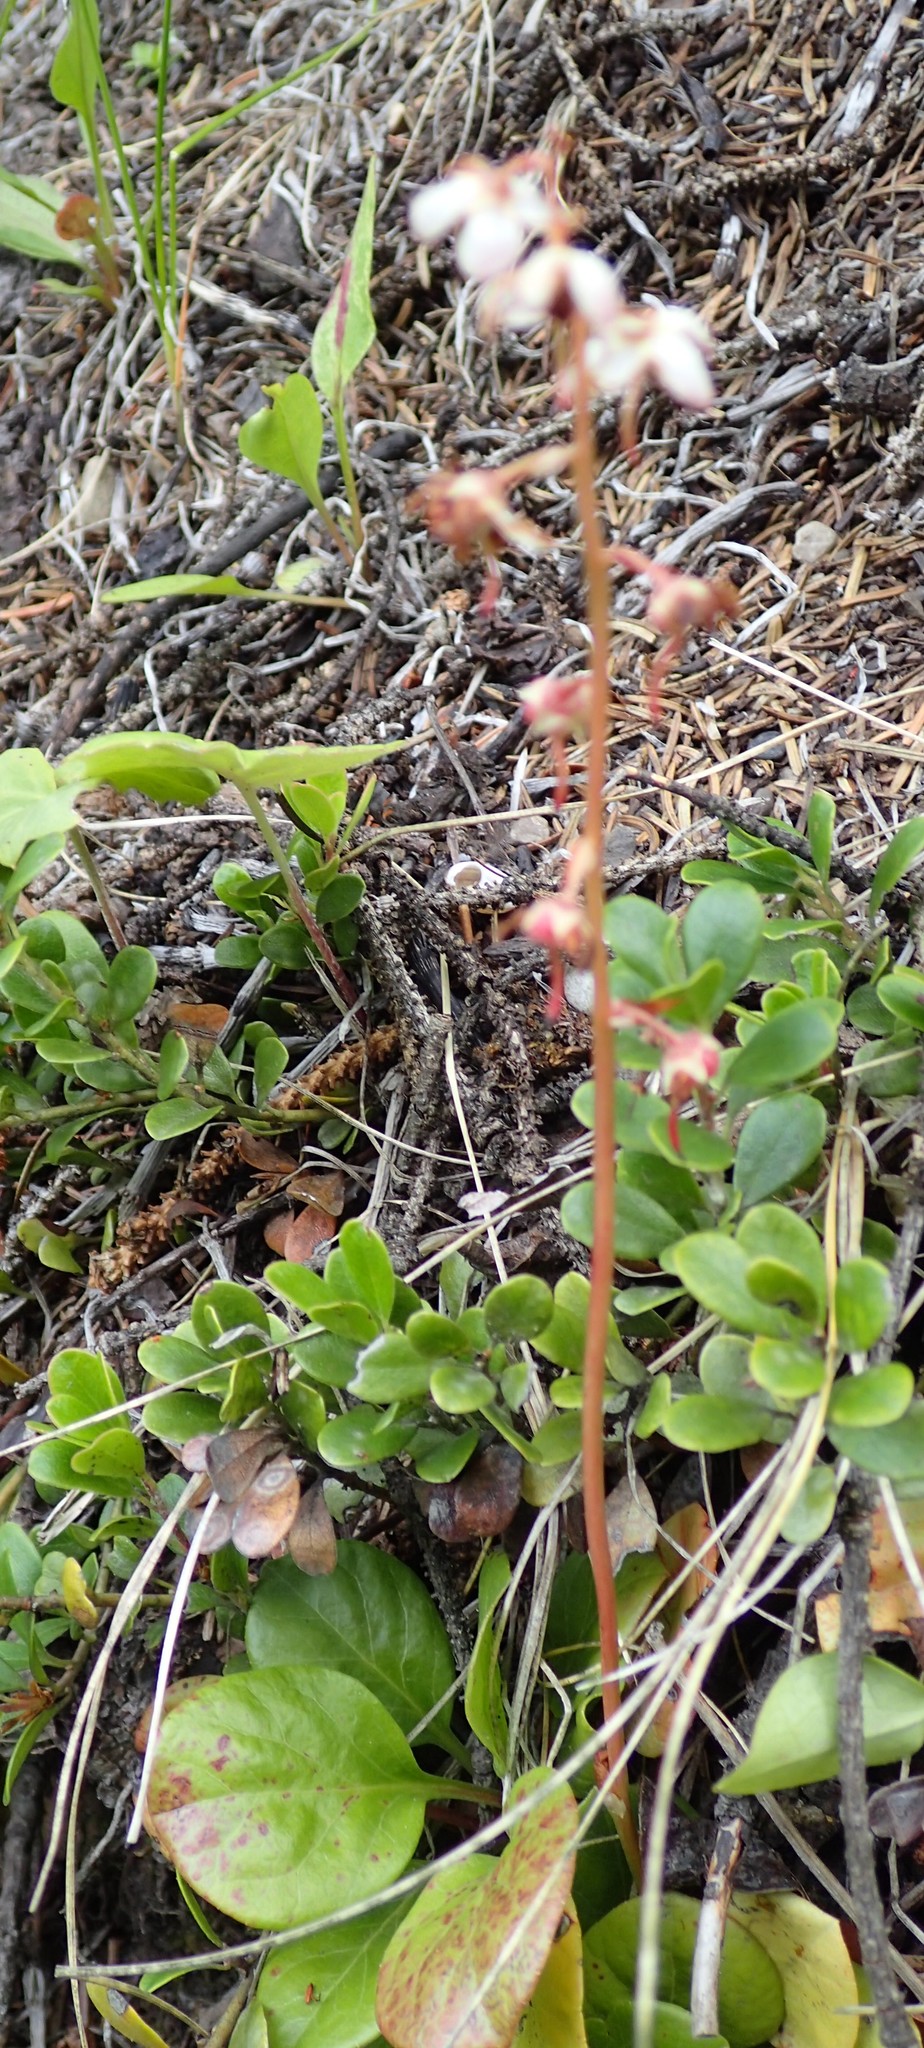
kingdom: Plantae
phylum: Tracheophyta
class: Magnoliopsida
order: Ericales
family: Ericaceae
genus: Pyrola
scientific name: Pyrola asarifolia
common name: Bog wintergreen
